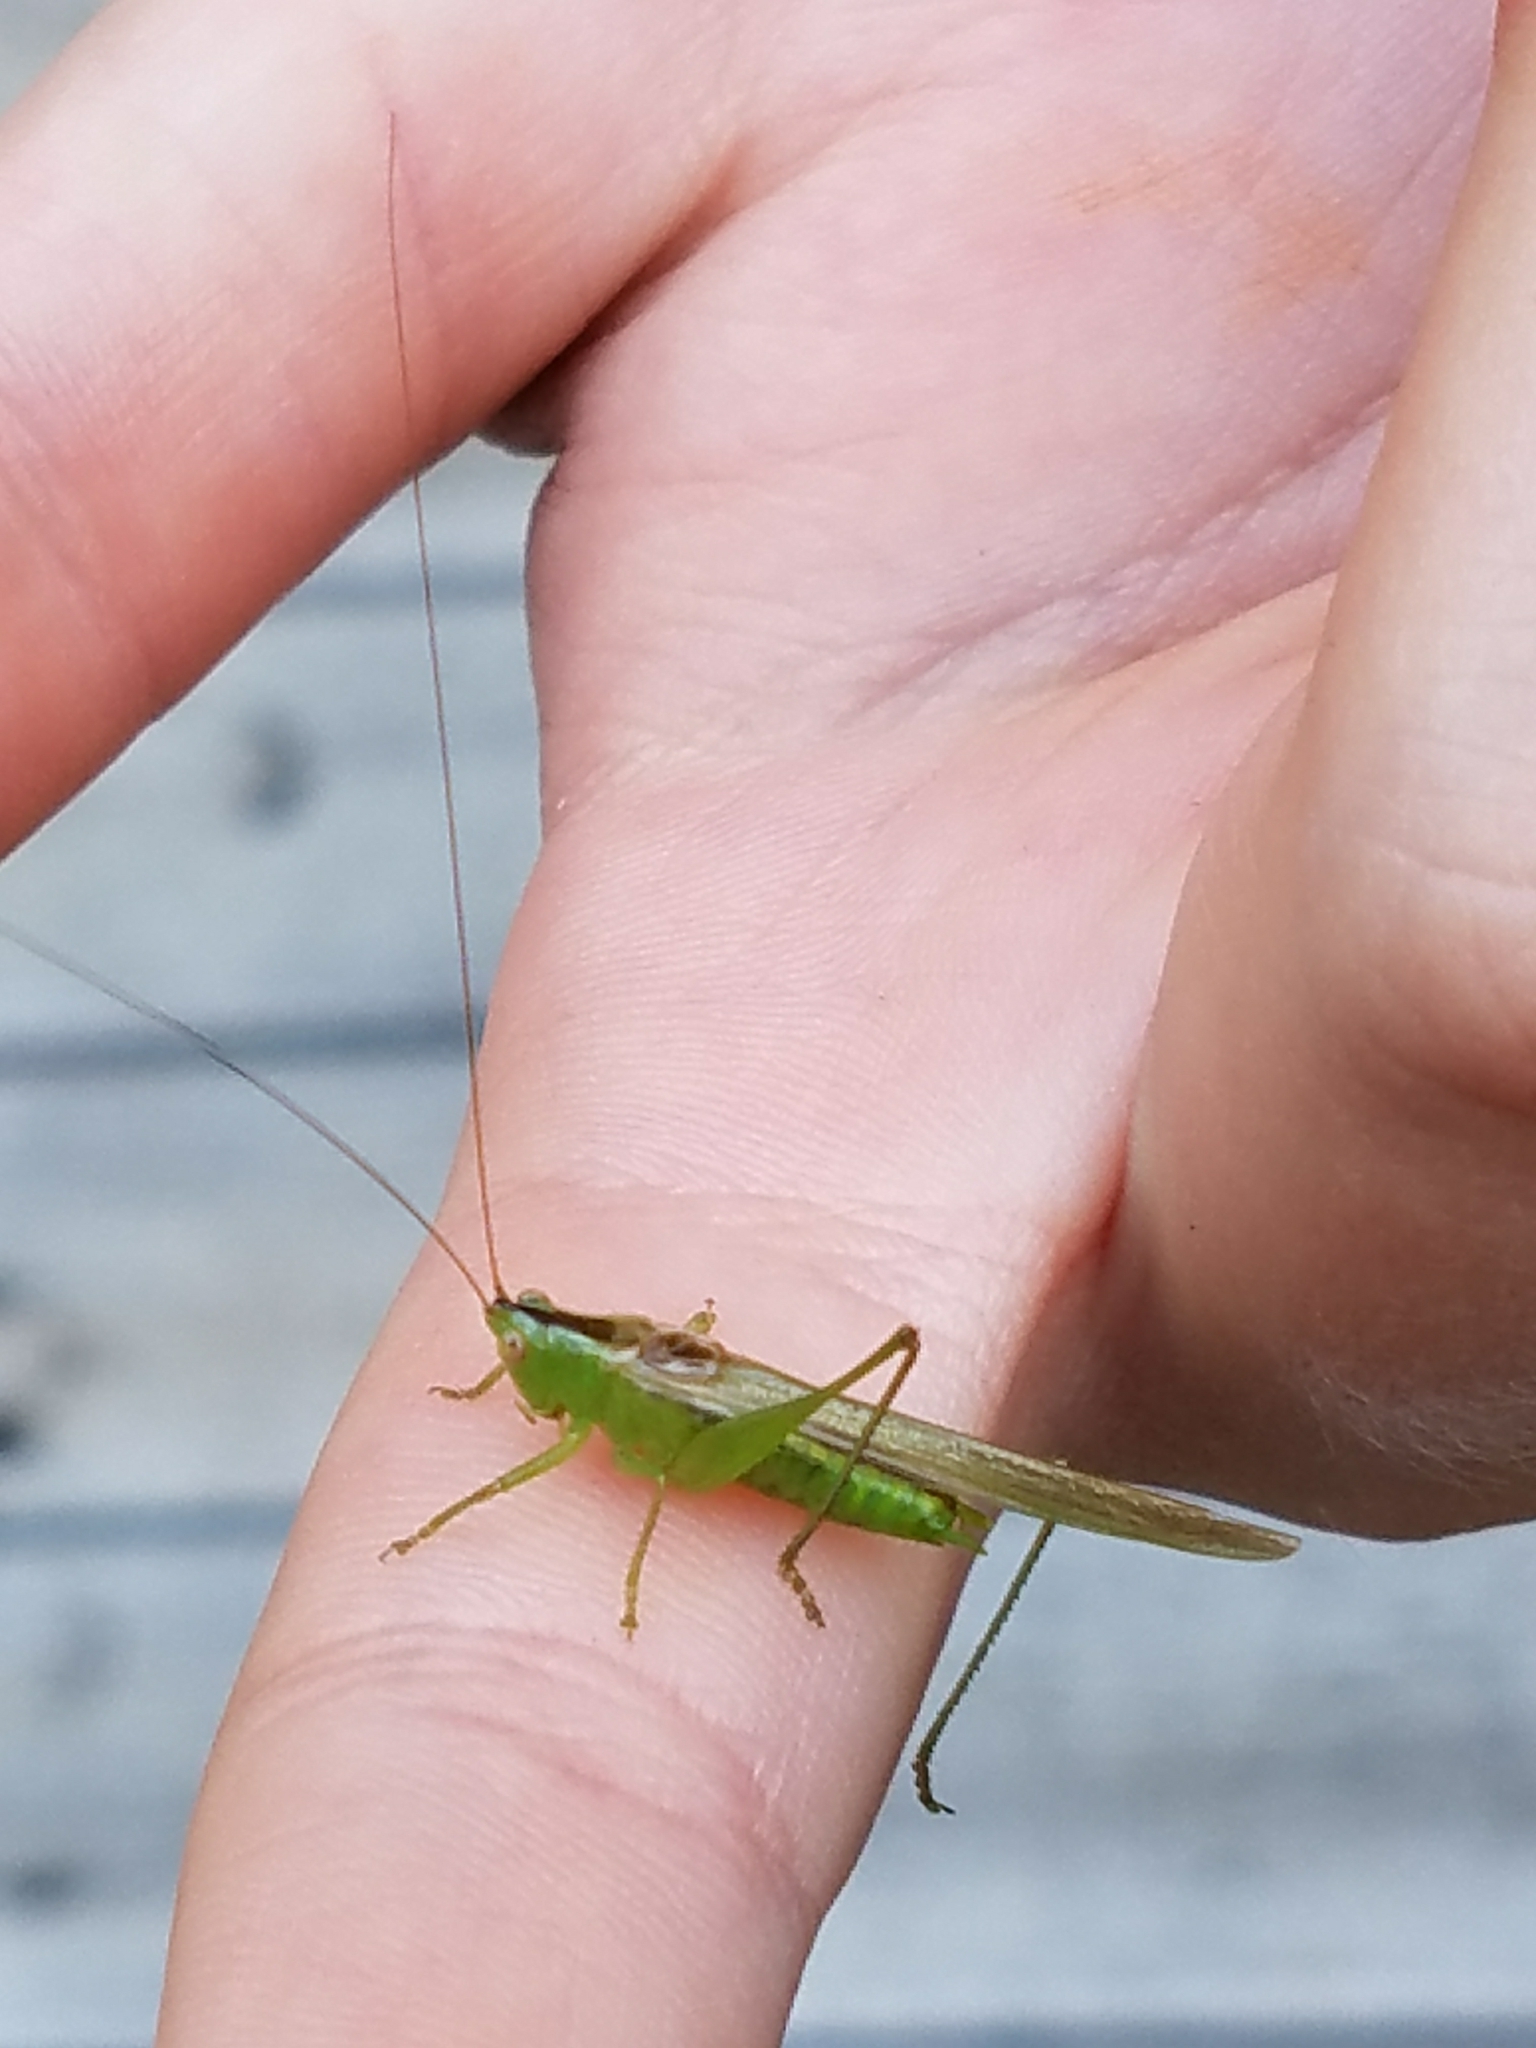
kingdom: Animalia
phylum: Arthropoda
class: Insecta
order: Orthoptera
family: Tettigoniidae
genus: Conocephalus
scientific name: Conocephalus fasciatus
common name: Slender meadow katydid
